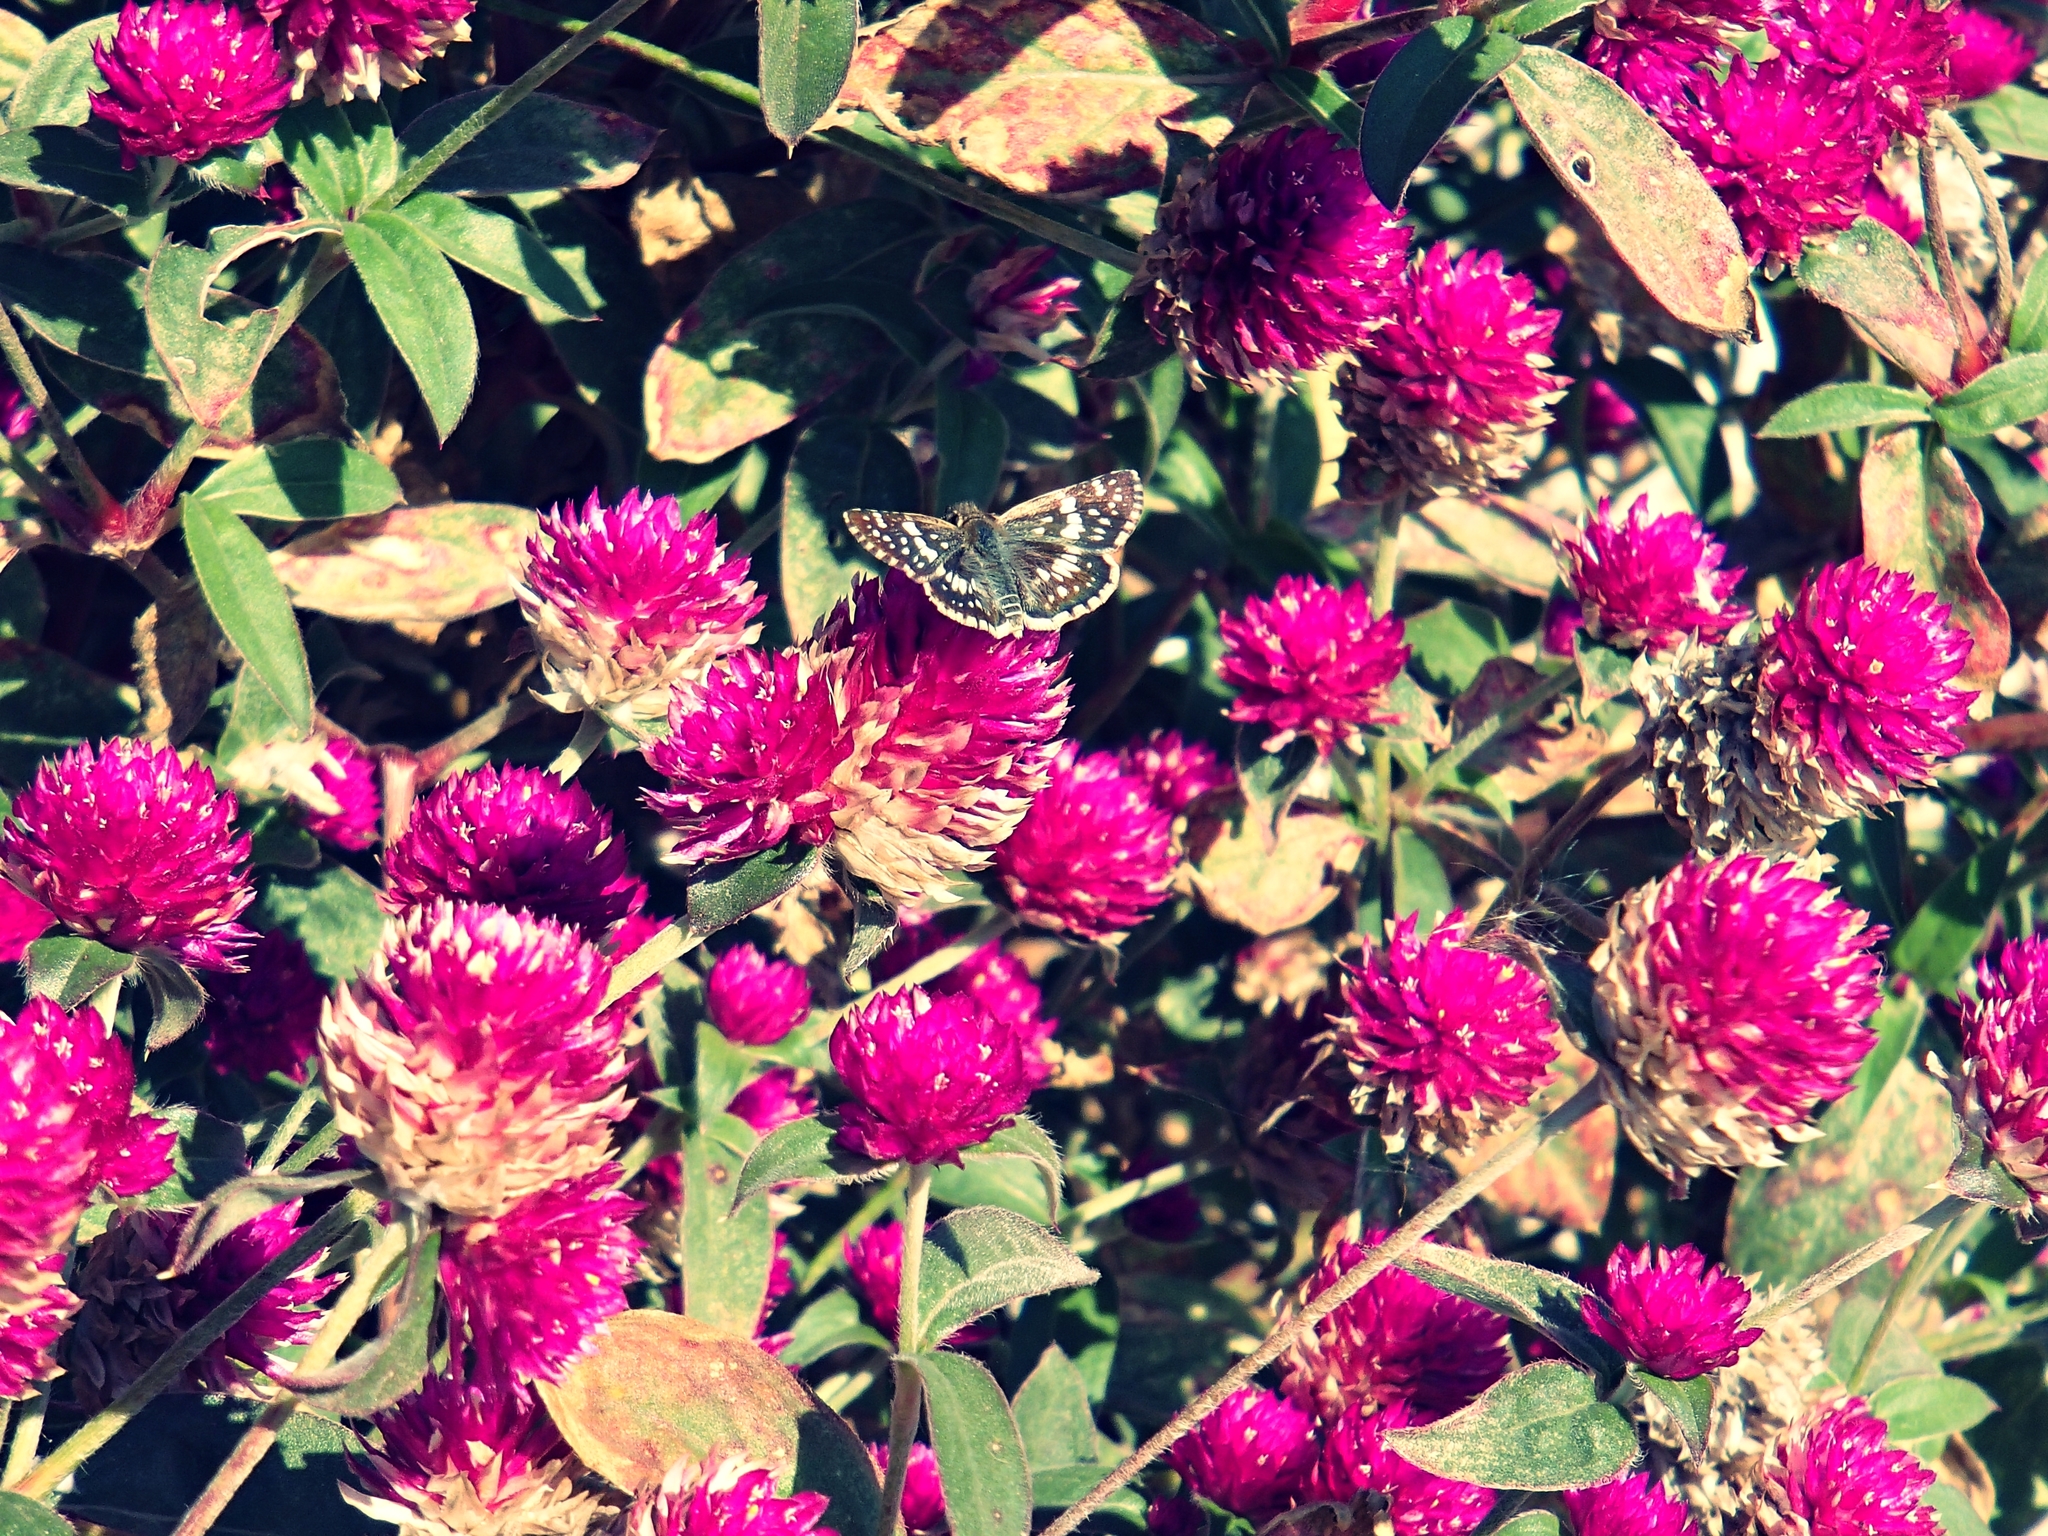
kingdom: Animalia
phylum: Arthropoda
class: Insecta
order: Lepidoptera
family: Hesperiidae
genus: Burnsius
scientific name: Burnsius orcynoides
